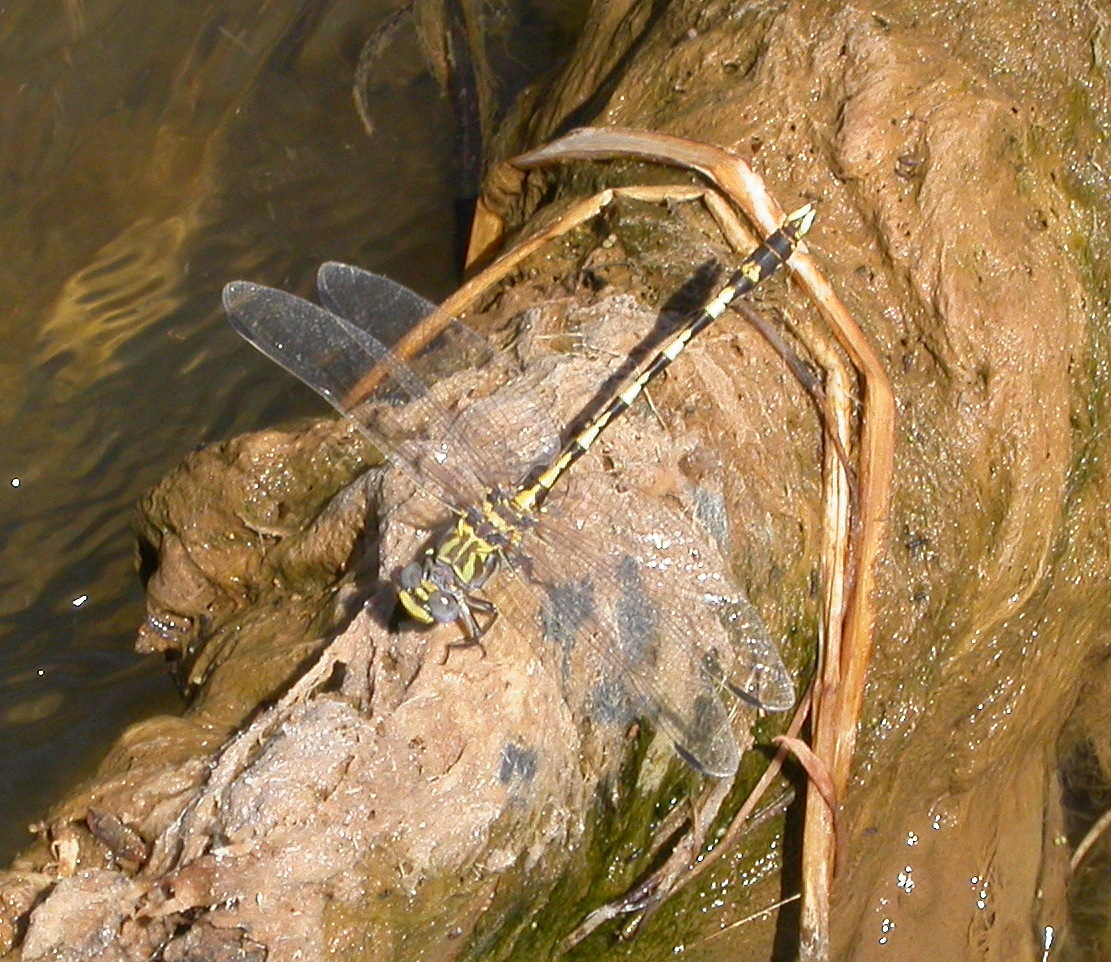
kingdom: Animalia
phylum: Arthropoda
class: Insecta
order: Odonata
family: Gomphidae
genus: Progomphus
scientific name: Progomphus borealis
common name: Gray sanddragon
